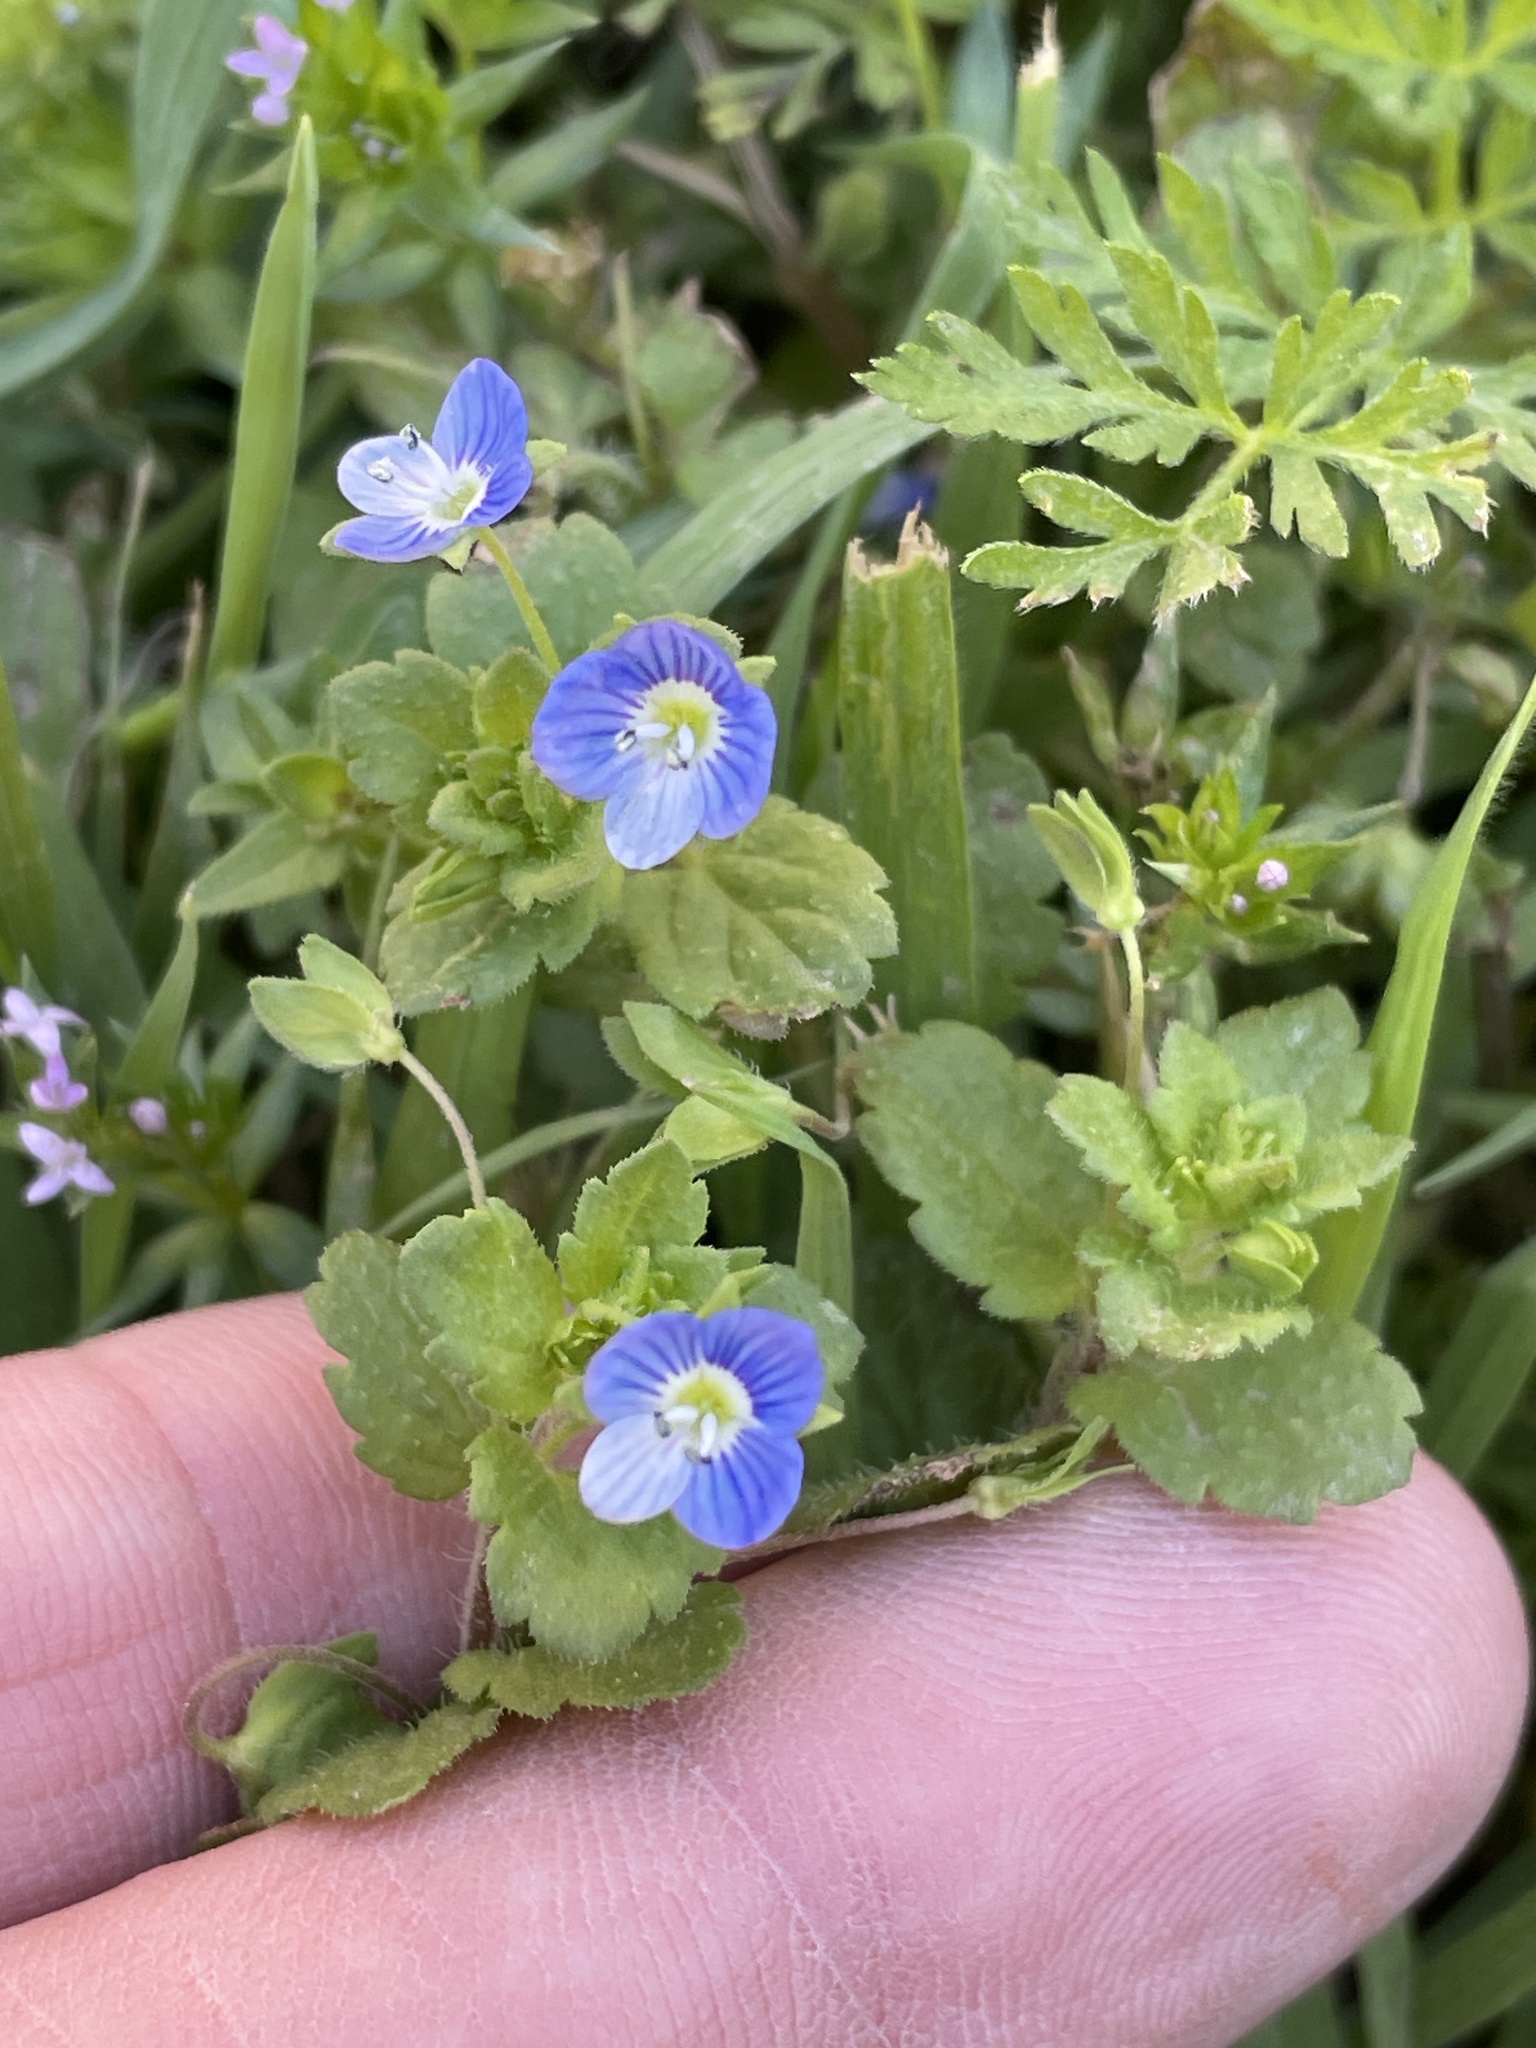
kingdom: Plantae
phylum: Tracheophyta
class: Magnoliopsida
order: Lamiales
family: Plantaginaceae
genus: Veronica
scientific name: Veronica persica
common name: Common field-speedwell
